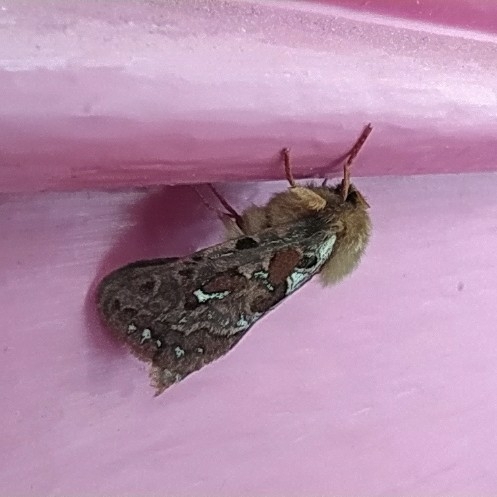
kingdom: Animalia
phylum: Arthropoda
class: Insecta
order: Lepidoptera
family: Hepialidae
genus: Korscheltellus
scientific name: Korscheltellus fusconebulosus
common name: Map-winged swift
